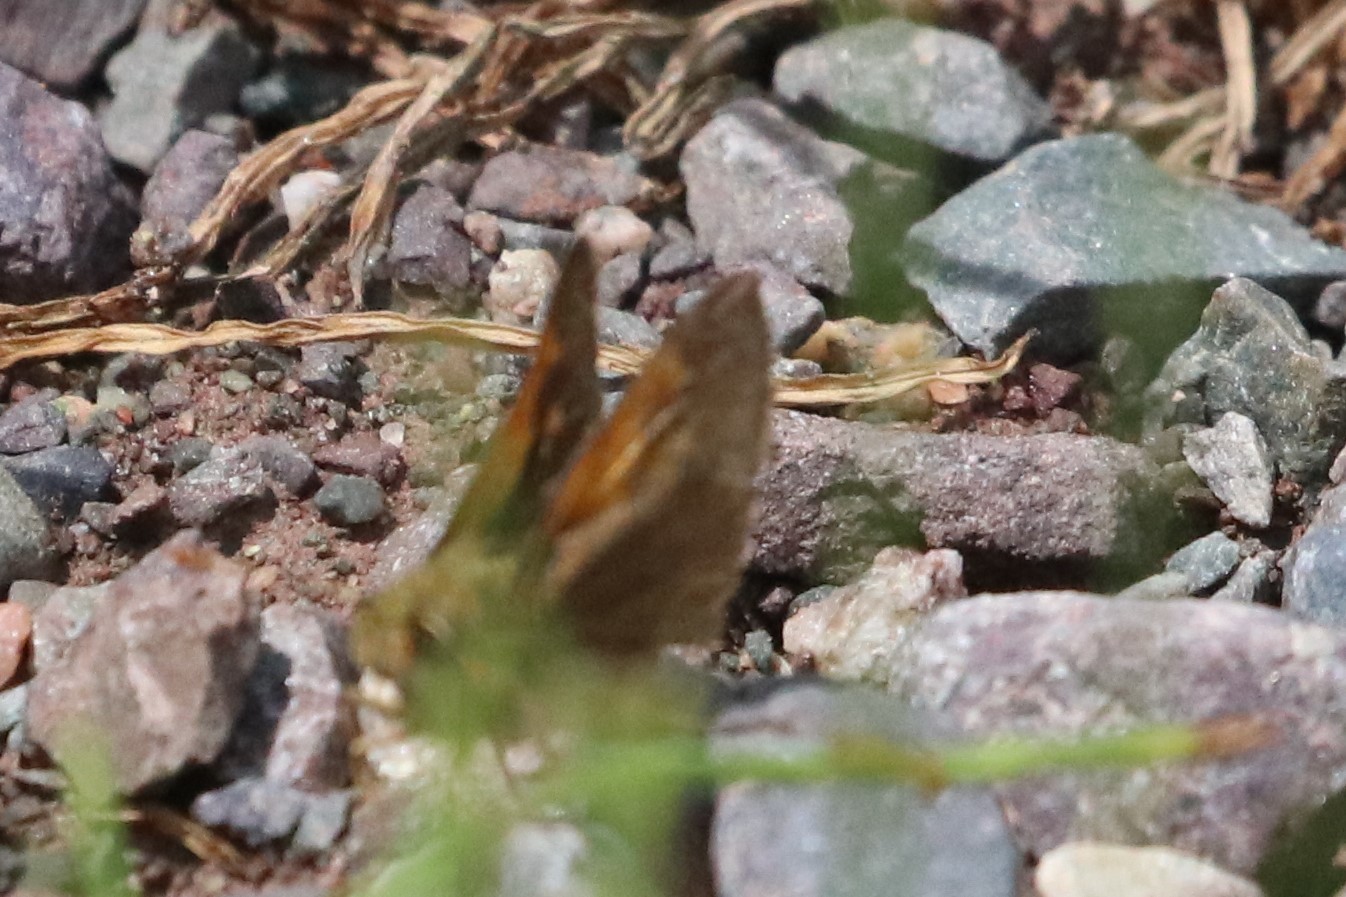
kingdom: Animalia
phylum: Arthropoda
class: Insecta
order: Lepidoptera
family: Hesperiidae
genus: Polites
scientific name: Polites themistocles
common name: Tawny-edged skipper
